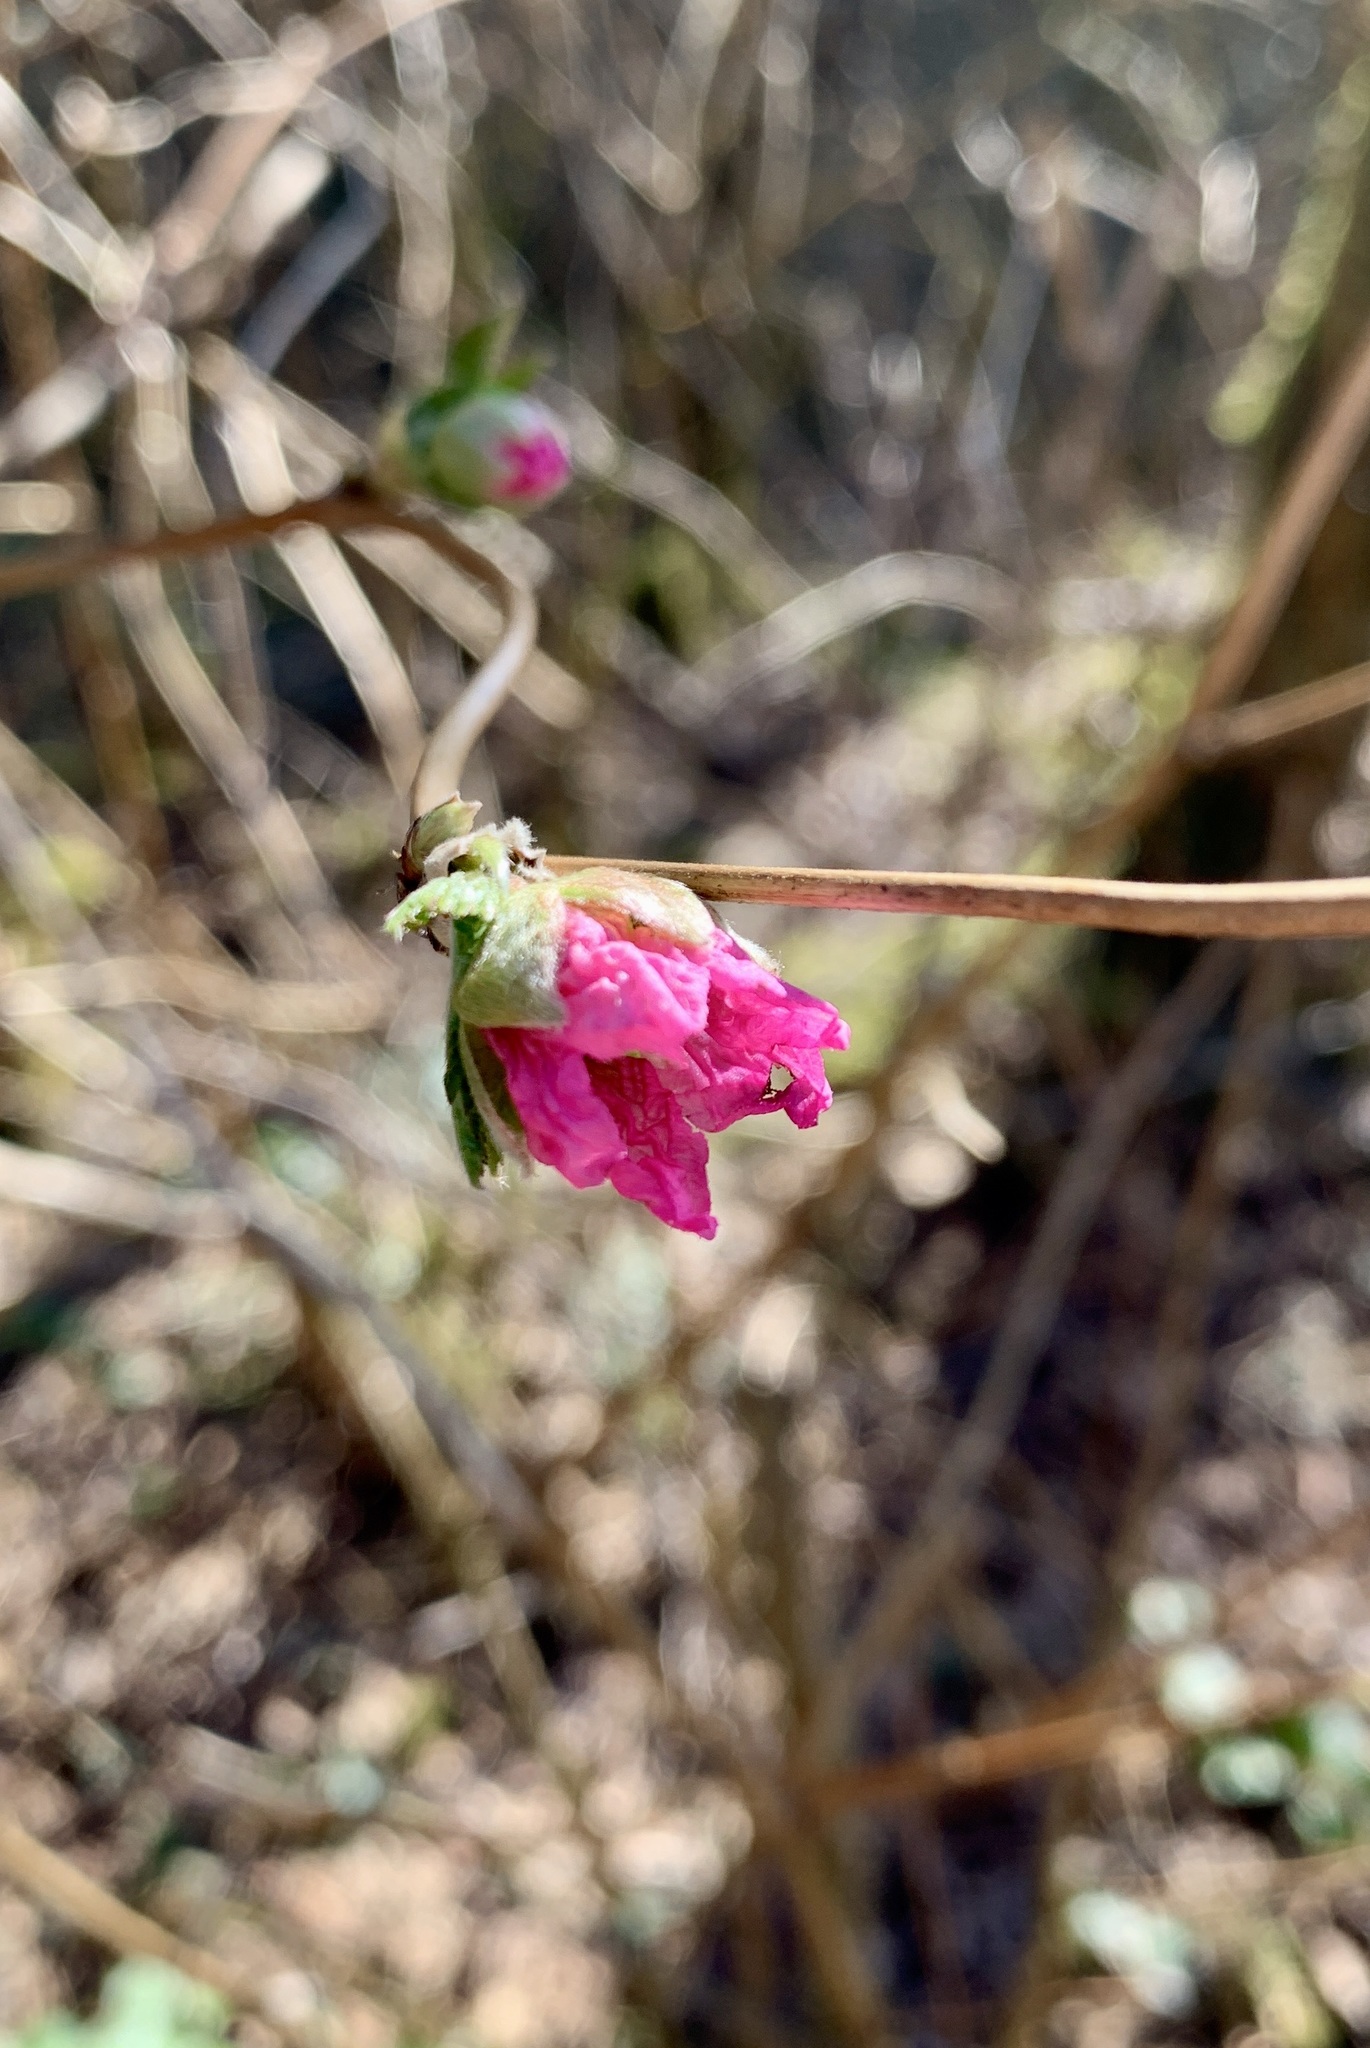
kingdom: Plantae
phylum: Tracheophyta
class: Magnoliopsida
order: Rosales
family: Rosaceae
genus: Rubus
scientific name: Rubus spectabilis
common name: Salmonberry
